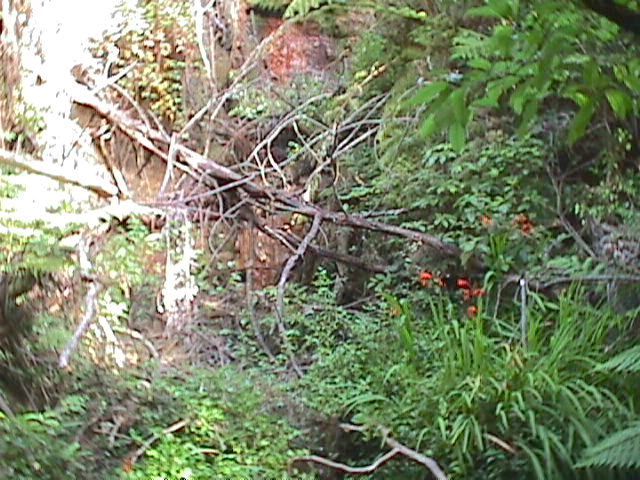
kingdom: Plantae
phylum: Tracheophyta
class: Liliopsida
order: Asparagales
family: Iridaceae
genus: Crocosmia
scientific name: Crocosmia crocosmiiflora
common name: Montbretia
